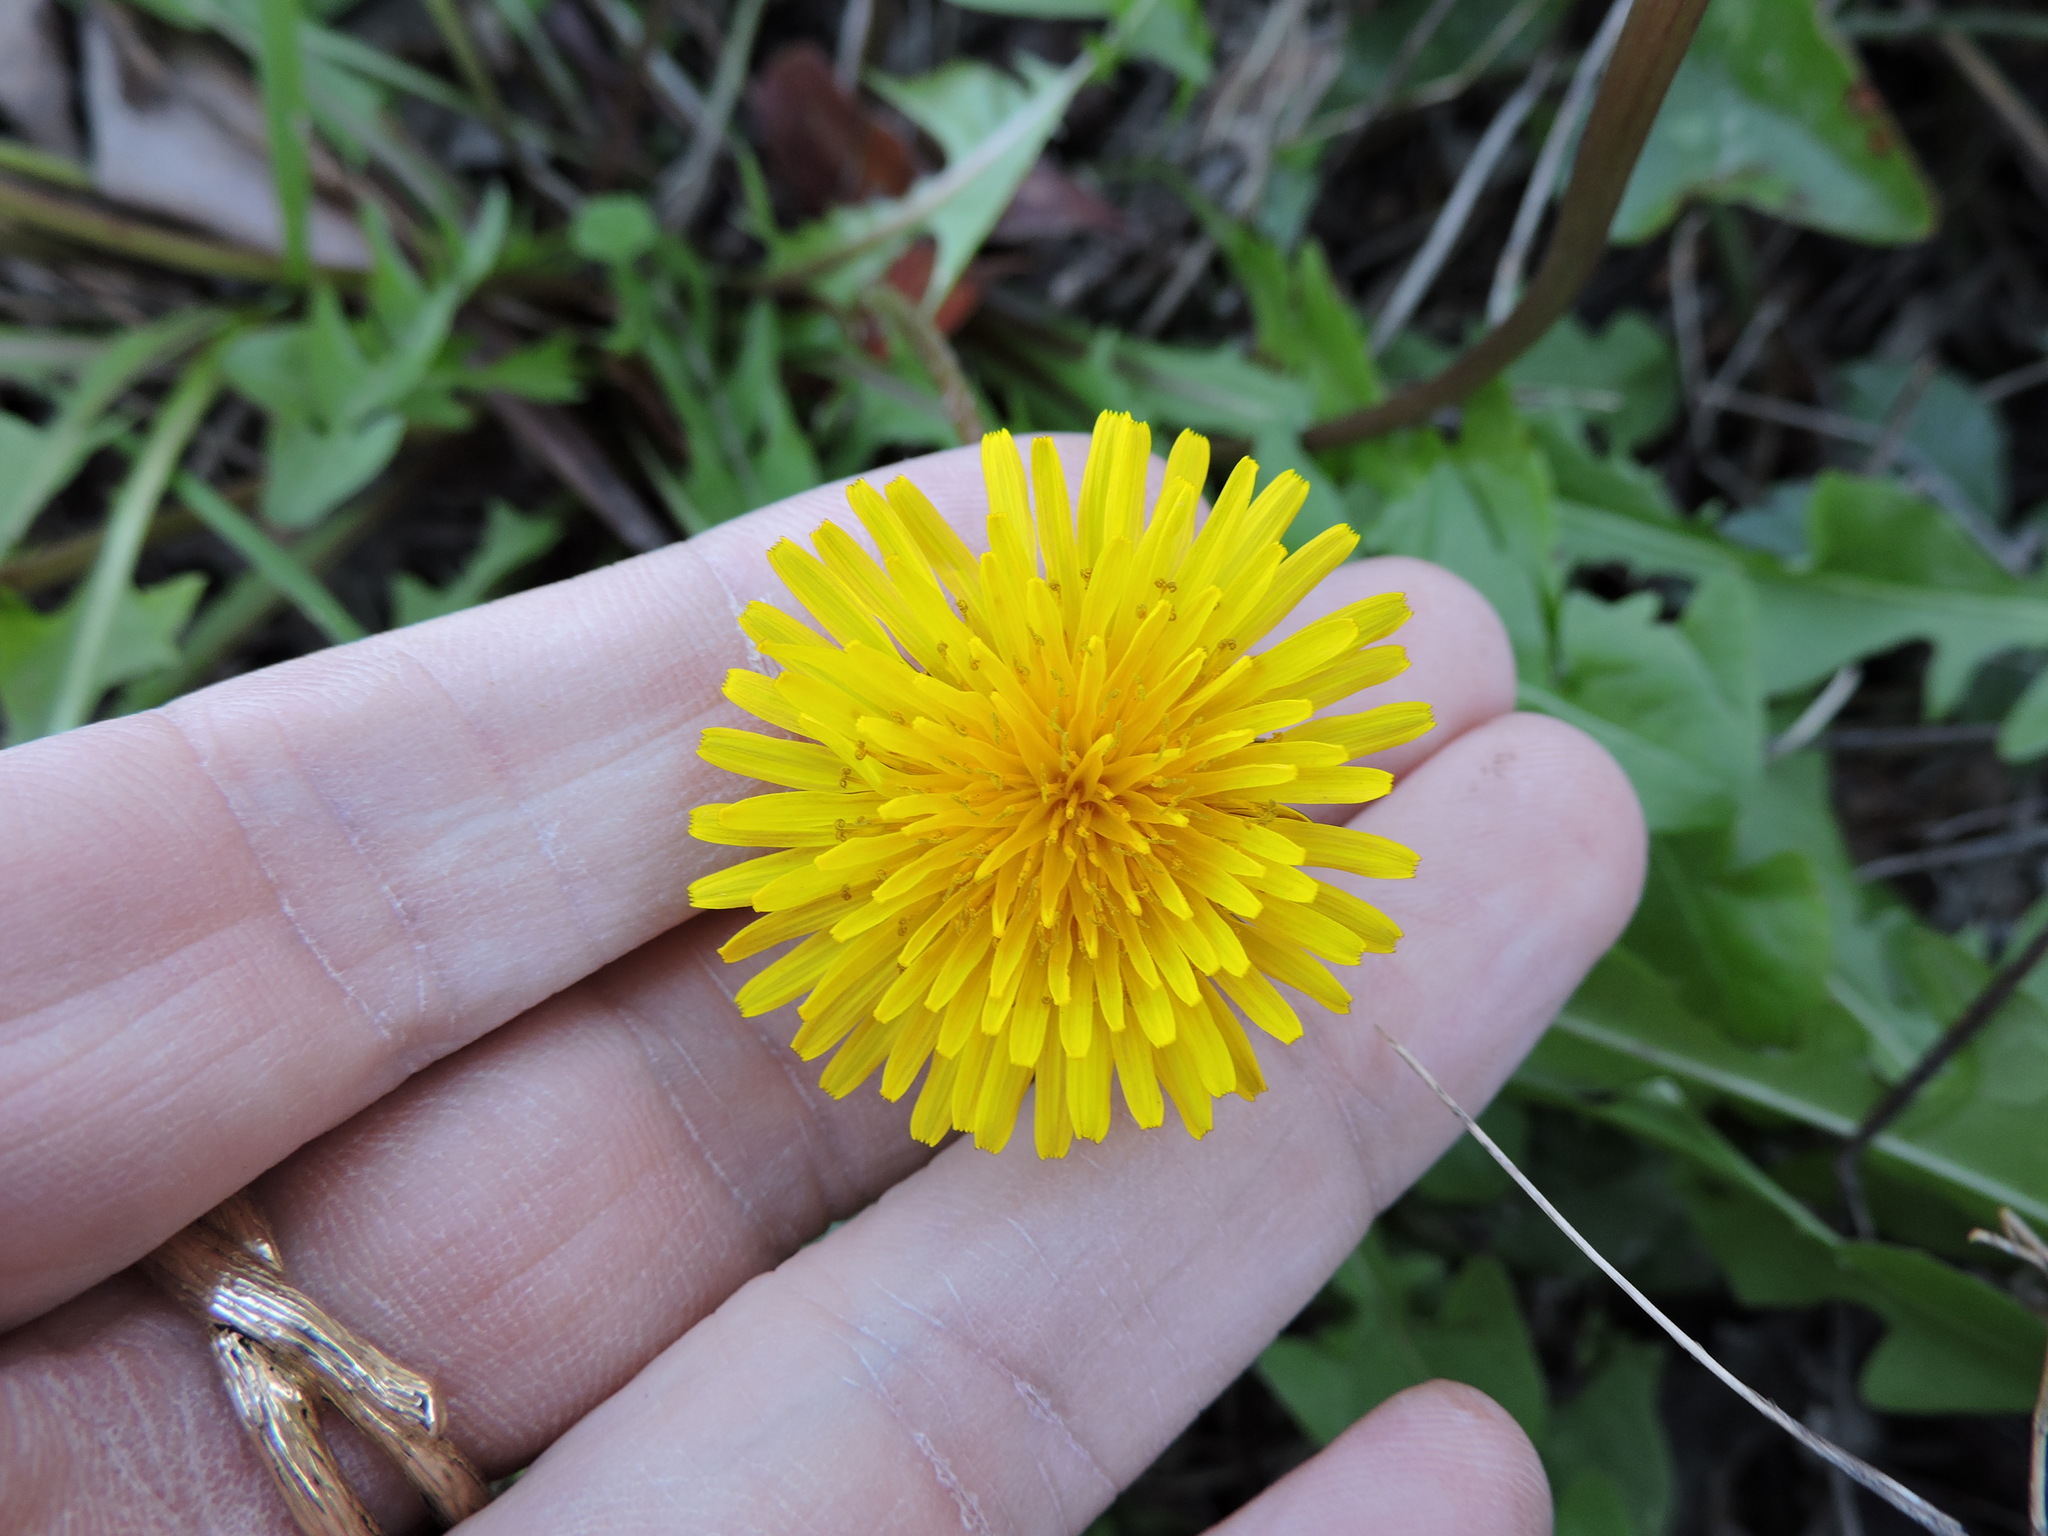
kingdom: Plantae
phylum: Tracheophyta
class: Magnoliopsida
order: Asterales
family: Asteraceae
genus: Taraxacum
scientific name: Taraxacum officinale
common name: Common dandelion
